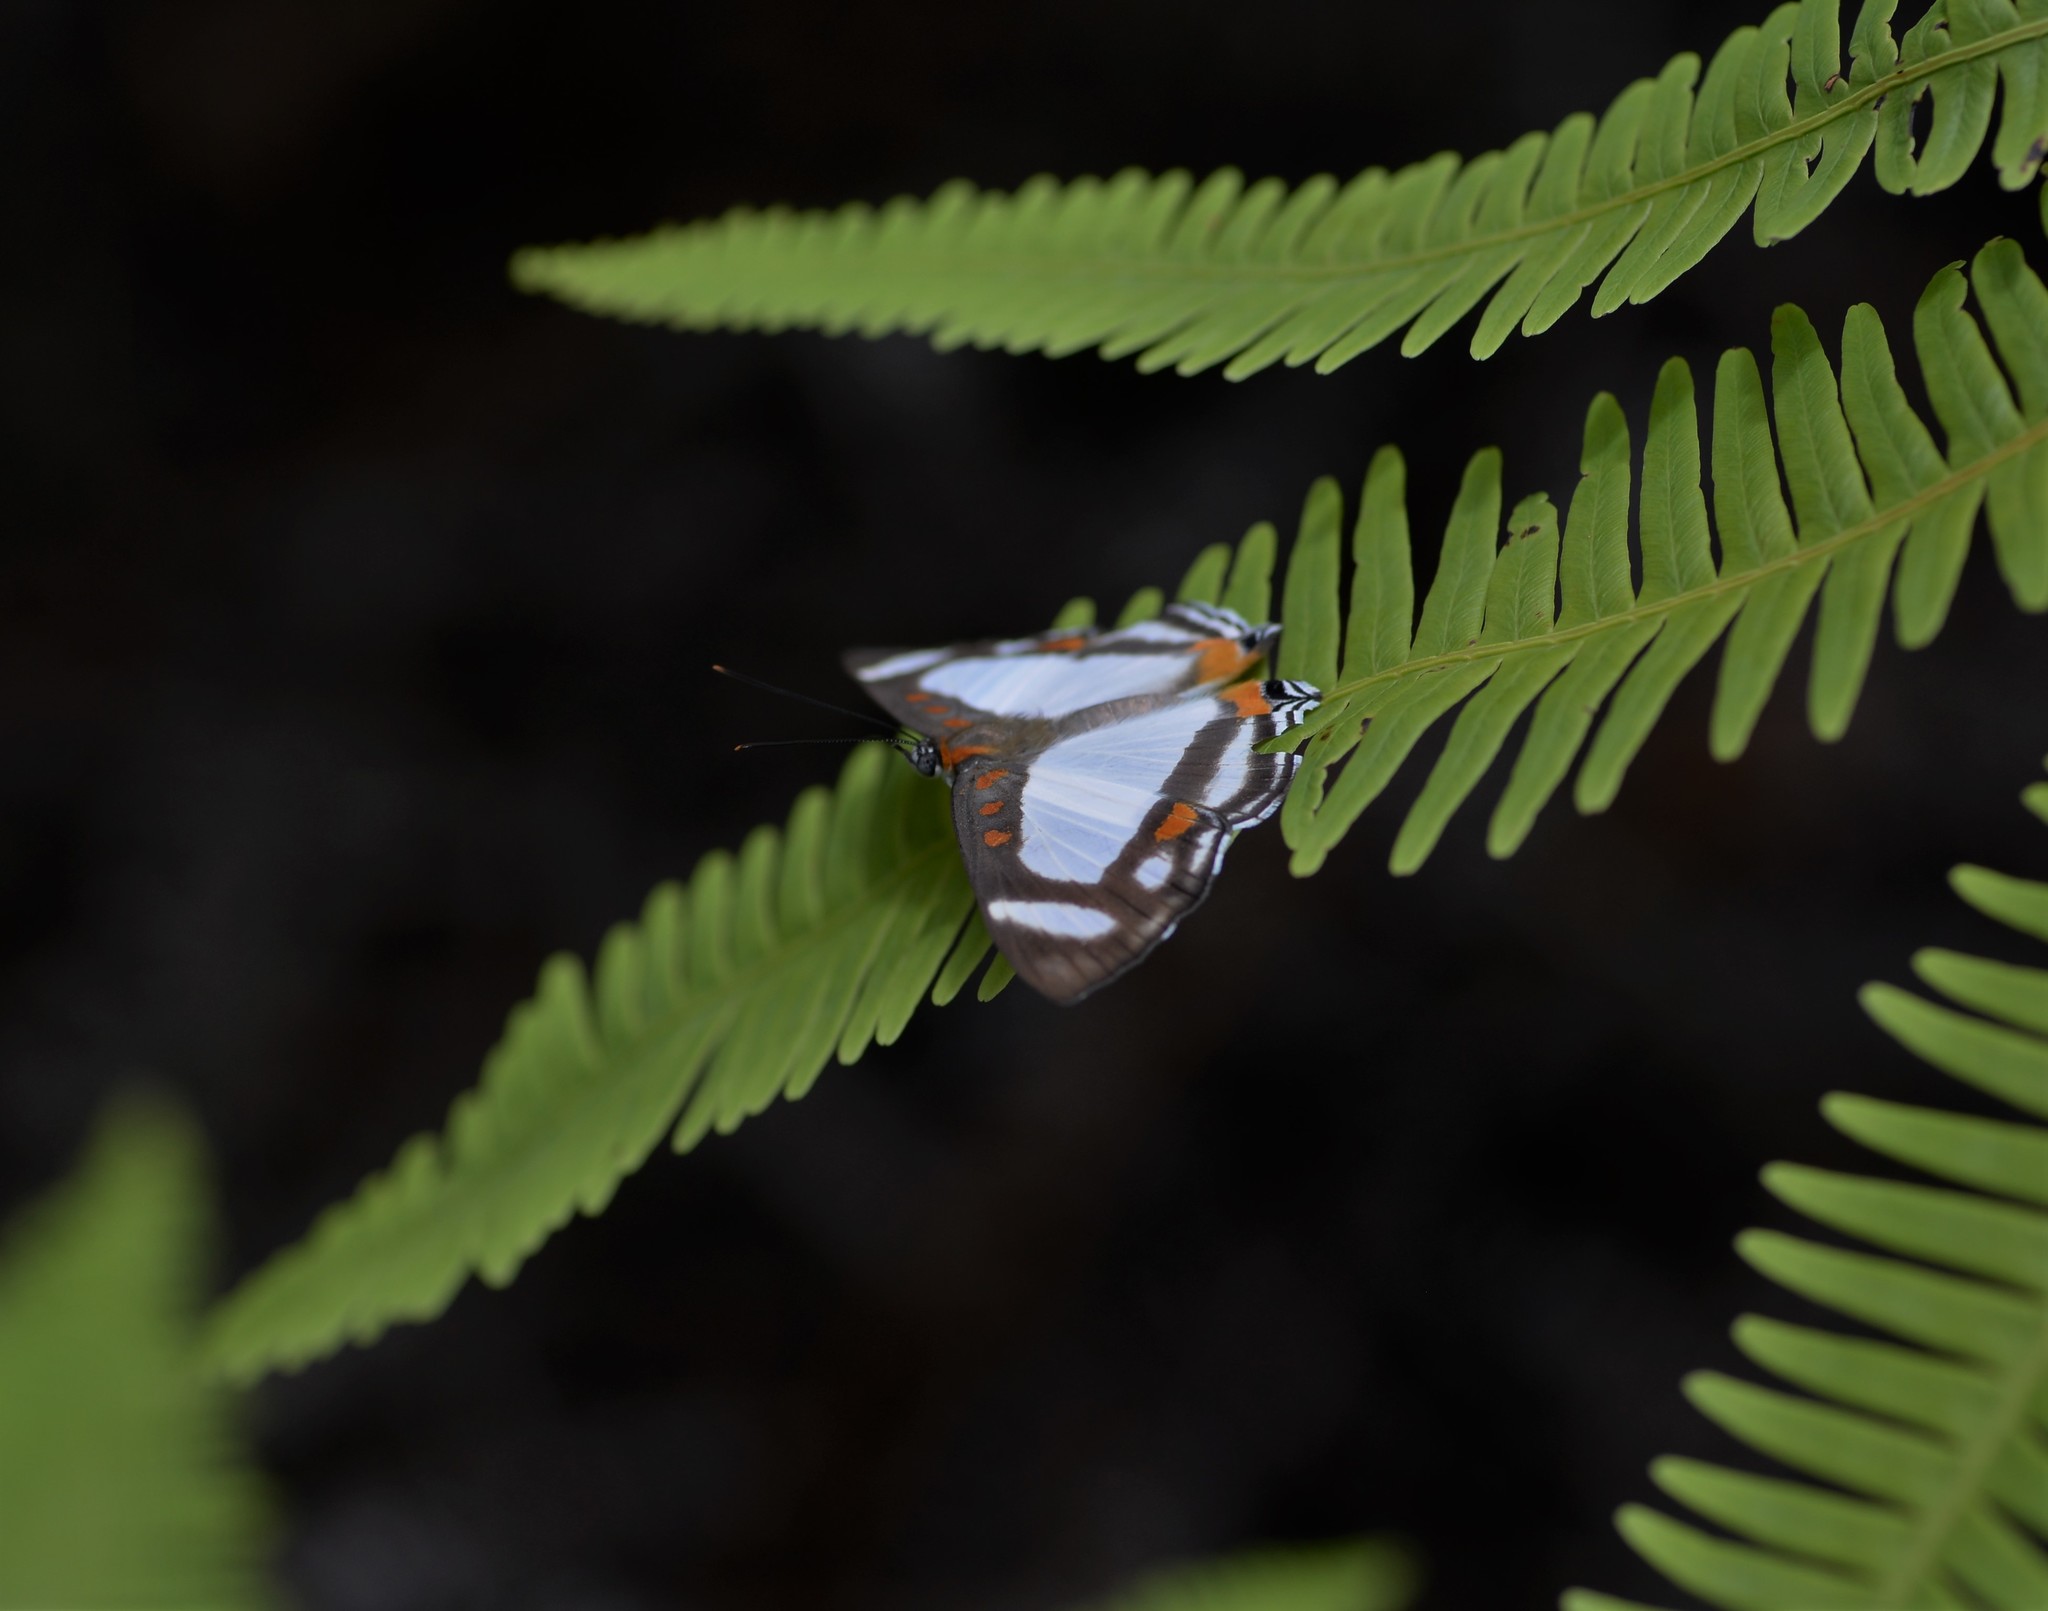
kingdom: Animalia
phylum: Arthropoda
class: Insecta
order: Lepidoptera
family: Riodinidae
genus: Thisbe
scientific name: Thisbe lycorias
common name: Banner metalmark
